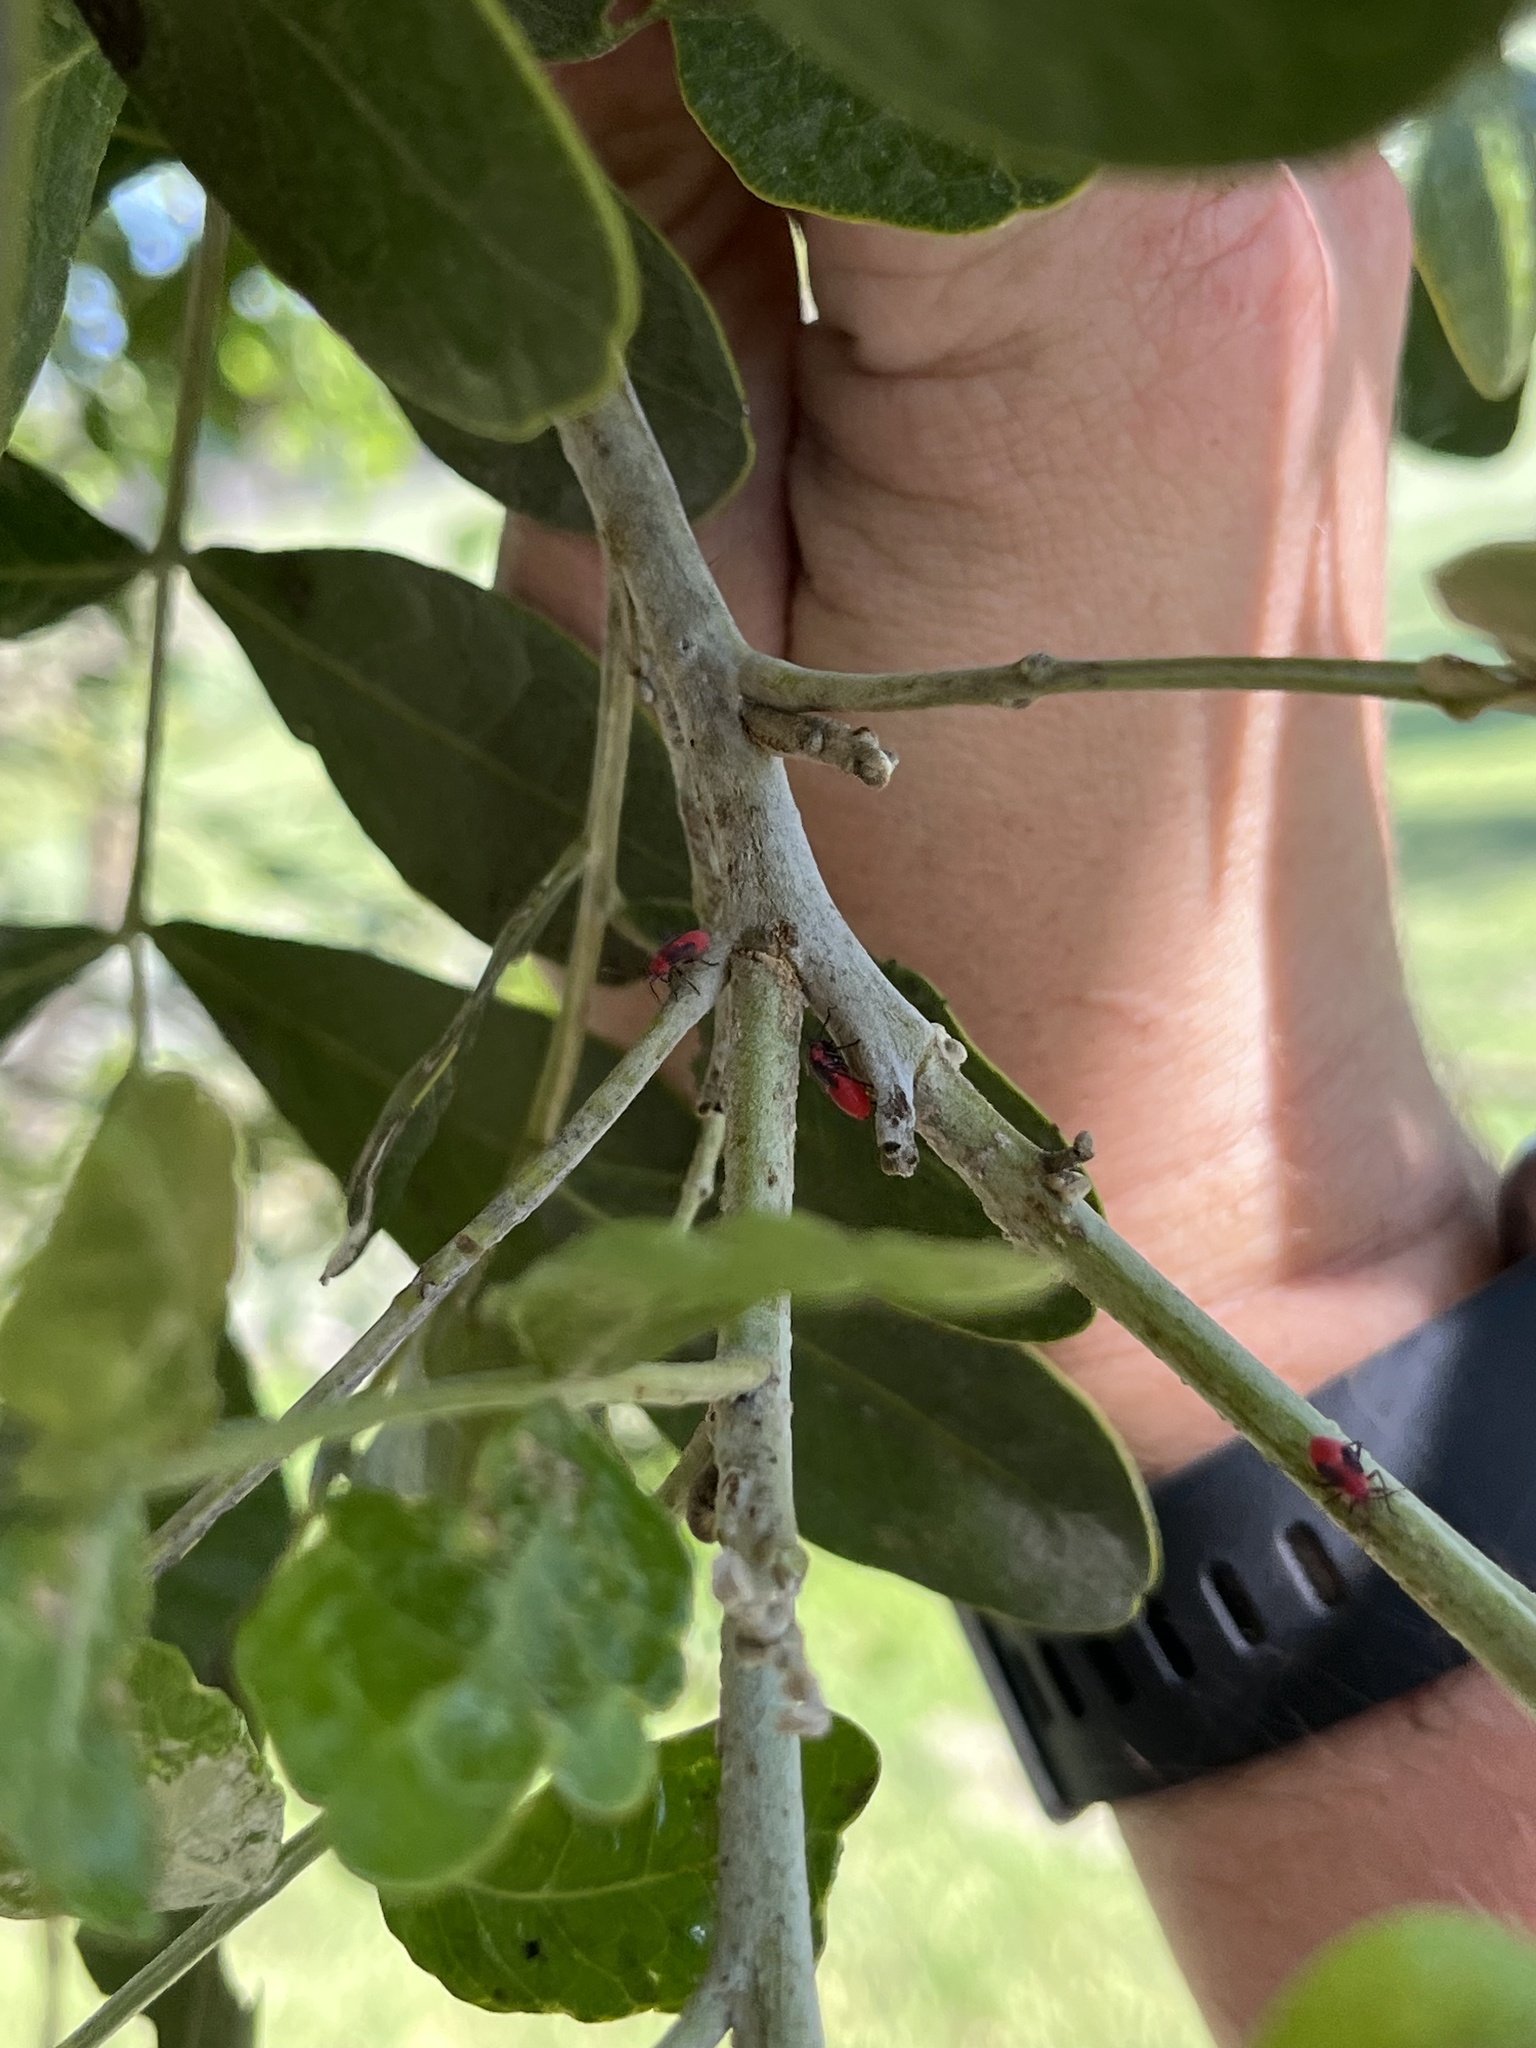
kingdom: Animalia
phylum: Arthropoda
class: Insecta
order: Hemiptera
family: Miridae
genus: Lopidea
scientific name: Lopidea major
